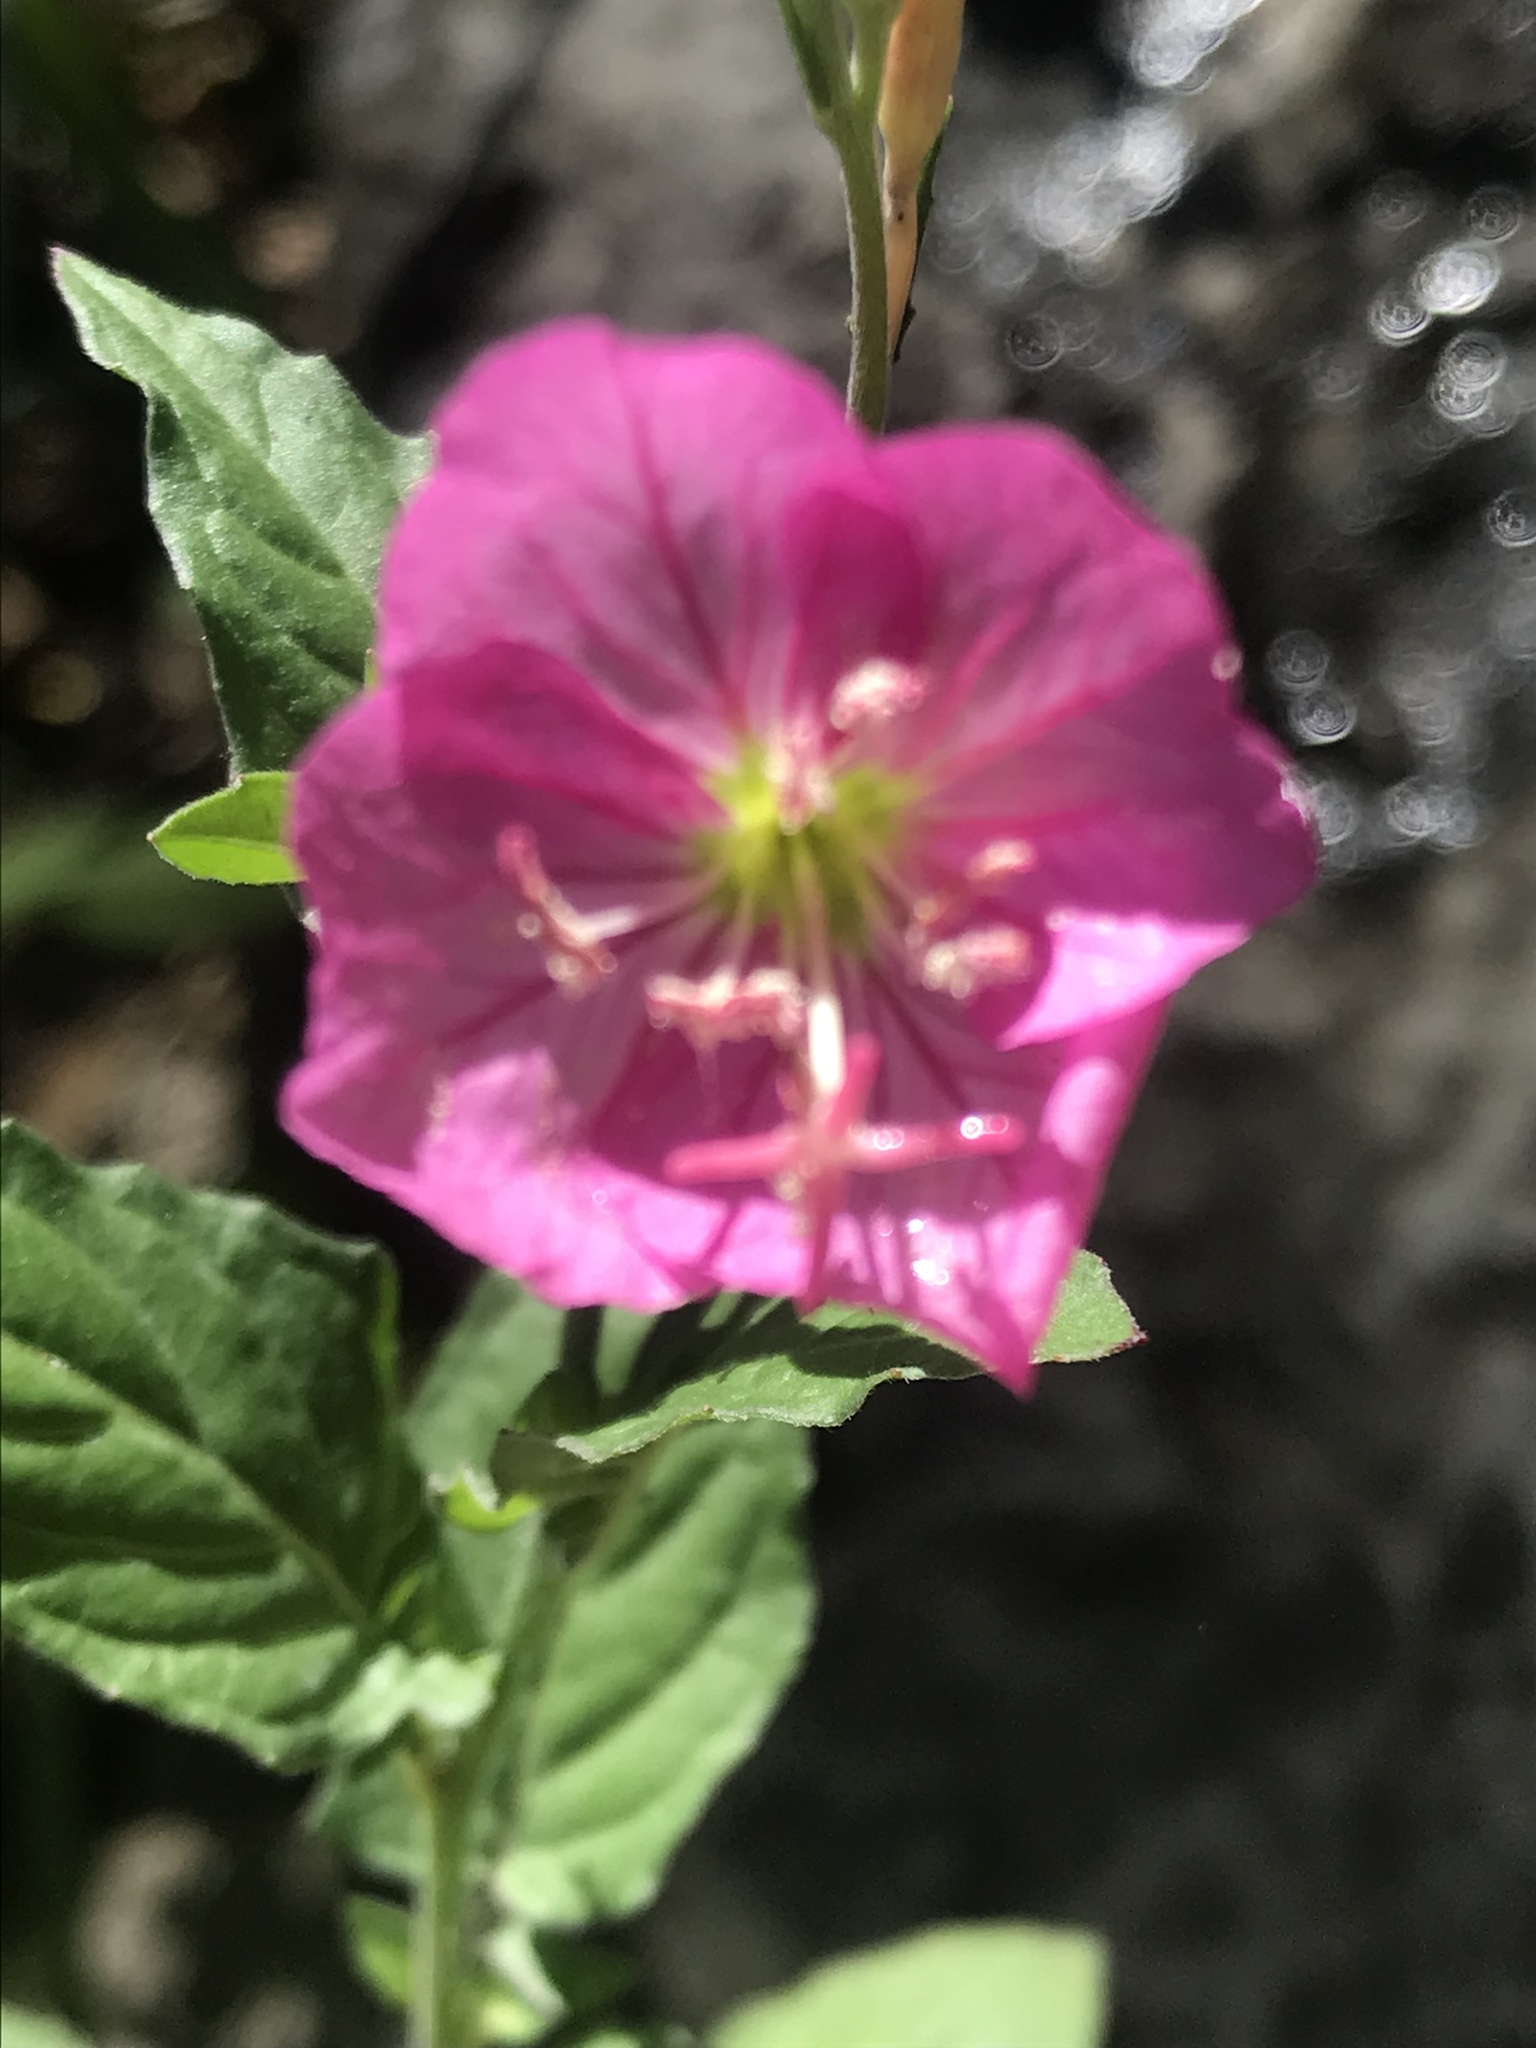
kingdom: Plantae
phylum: Tracheophyta
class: Magnoliopsida
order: Myrtales
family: Onagraceae
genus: Oenothera
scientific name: Oenothera rosea
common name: Rosy evening-primrose
